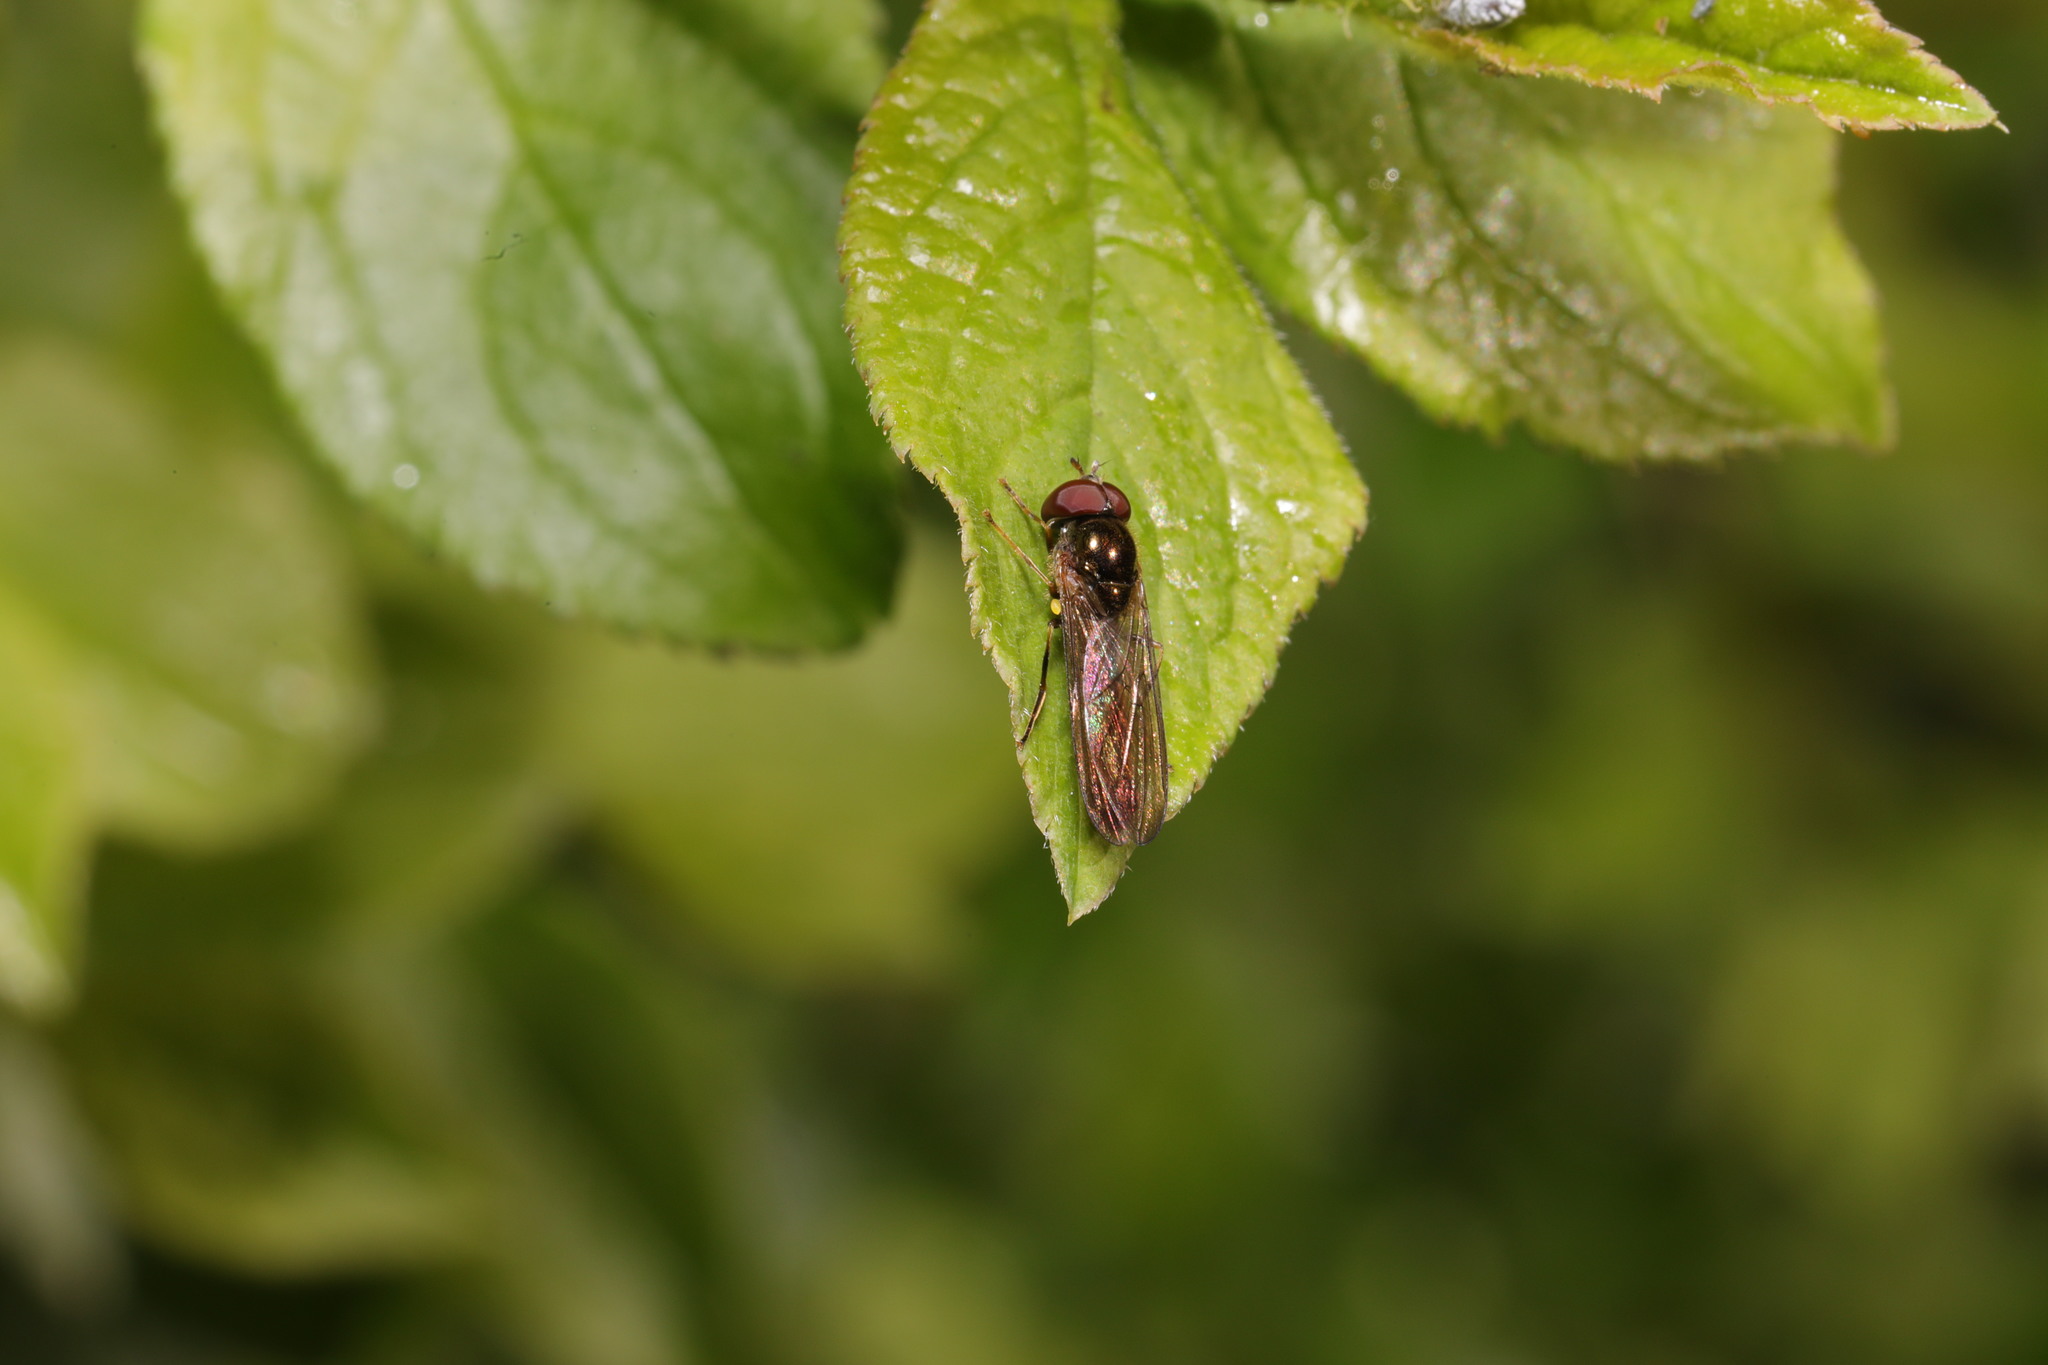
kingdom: Animalia
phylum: Arthropoda
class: Insecta
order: Diptera
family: Syrphidae
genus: Melanostoma
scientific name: Melanostoma scalare
